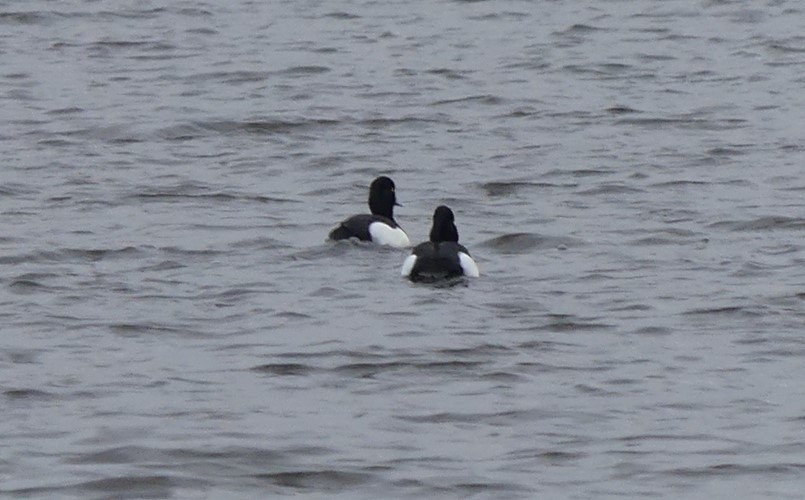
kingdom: Animalia
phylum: Chordata
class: Aves
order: Anseriformes
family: Anatidae
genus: Aythya
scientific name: Aythya fuligula
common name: Tufted duck
